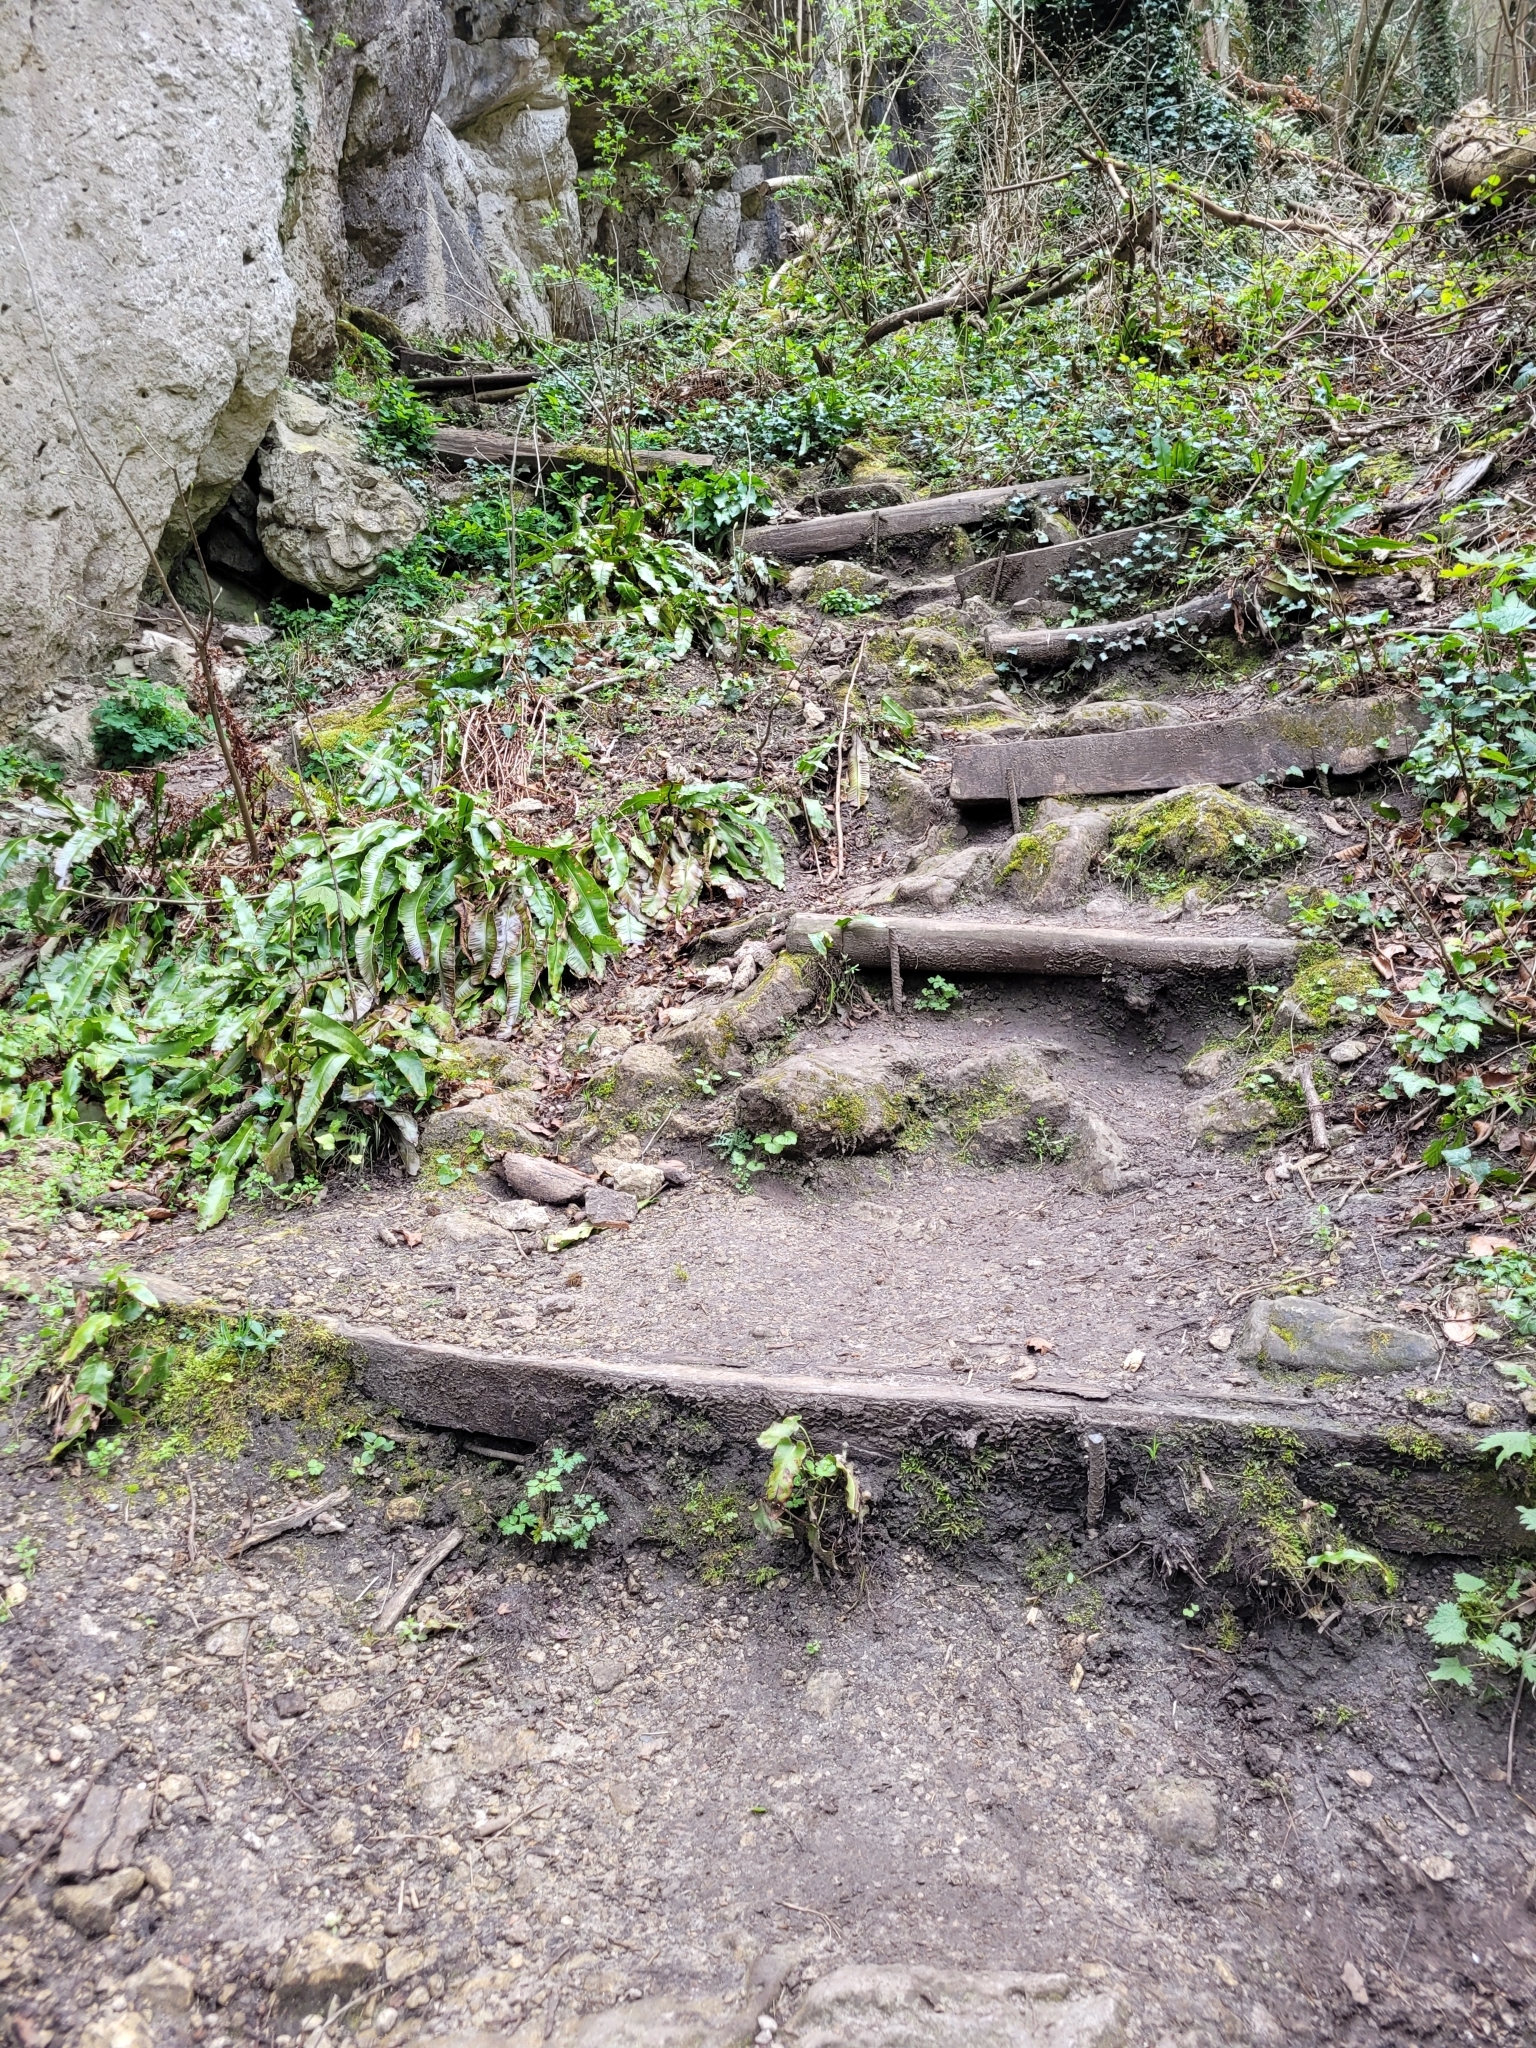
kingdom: Plantae
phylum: Tracheophyta
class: Polypodiopsida
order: Polypodiales
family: Aspleniaceae
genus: Asplenium
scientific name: Asplenium scolopendrium
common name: Hart's-tongue fern
